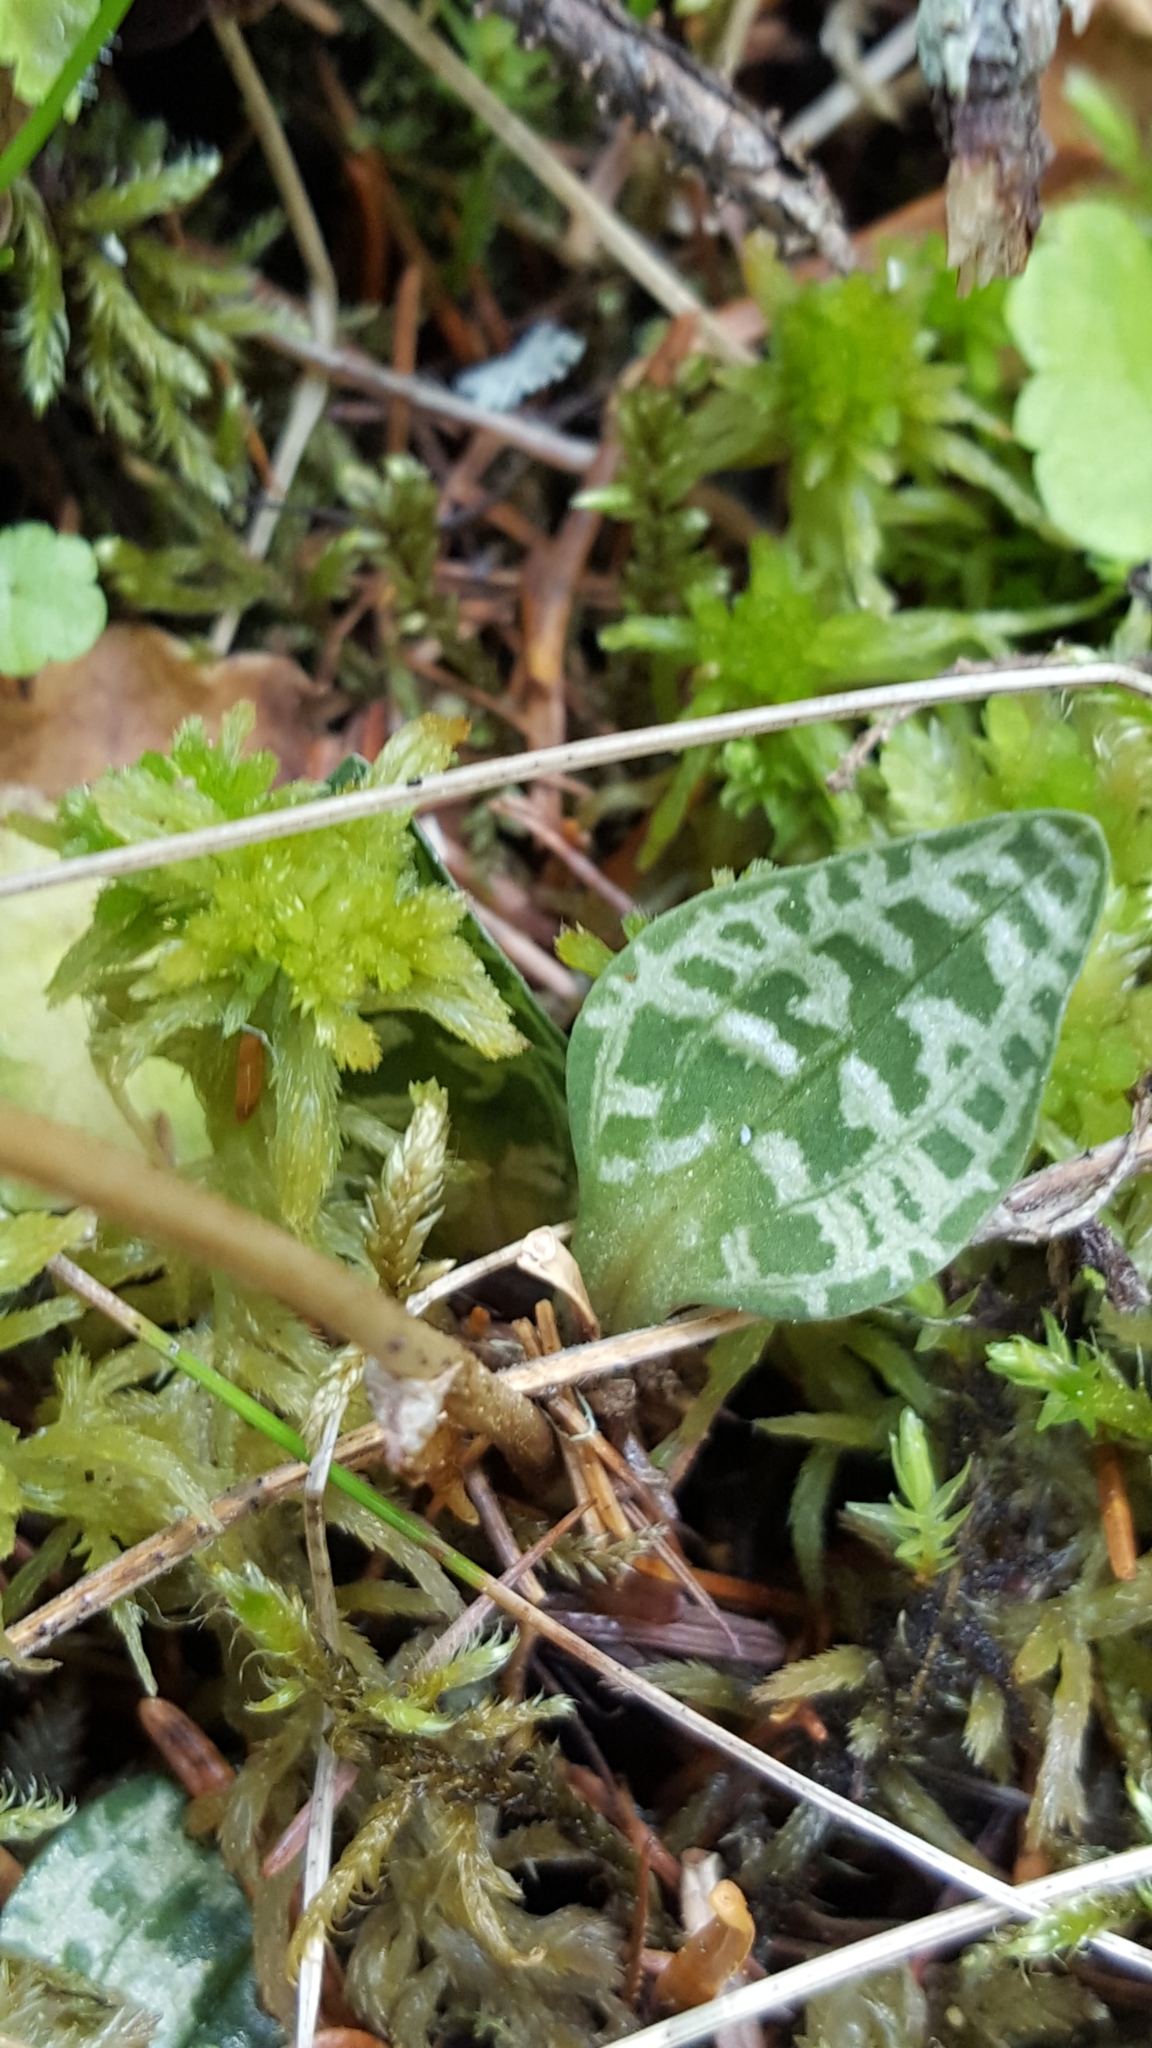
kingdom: Plantae
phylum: Tracheophyta
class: Liliopsida
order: Asparagales
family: Orchidaceae
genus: Goodyera
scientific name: Goodyera repens
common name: Creeping lady's-tresses
